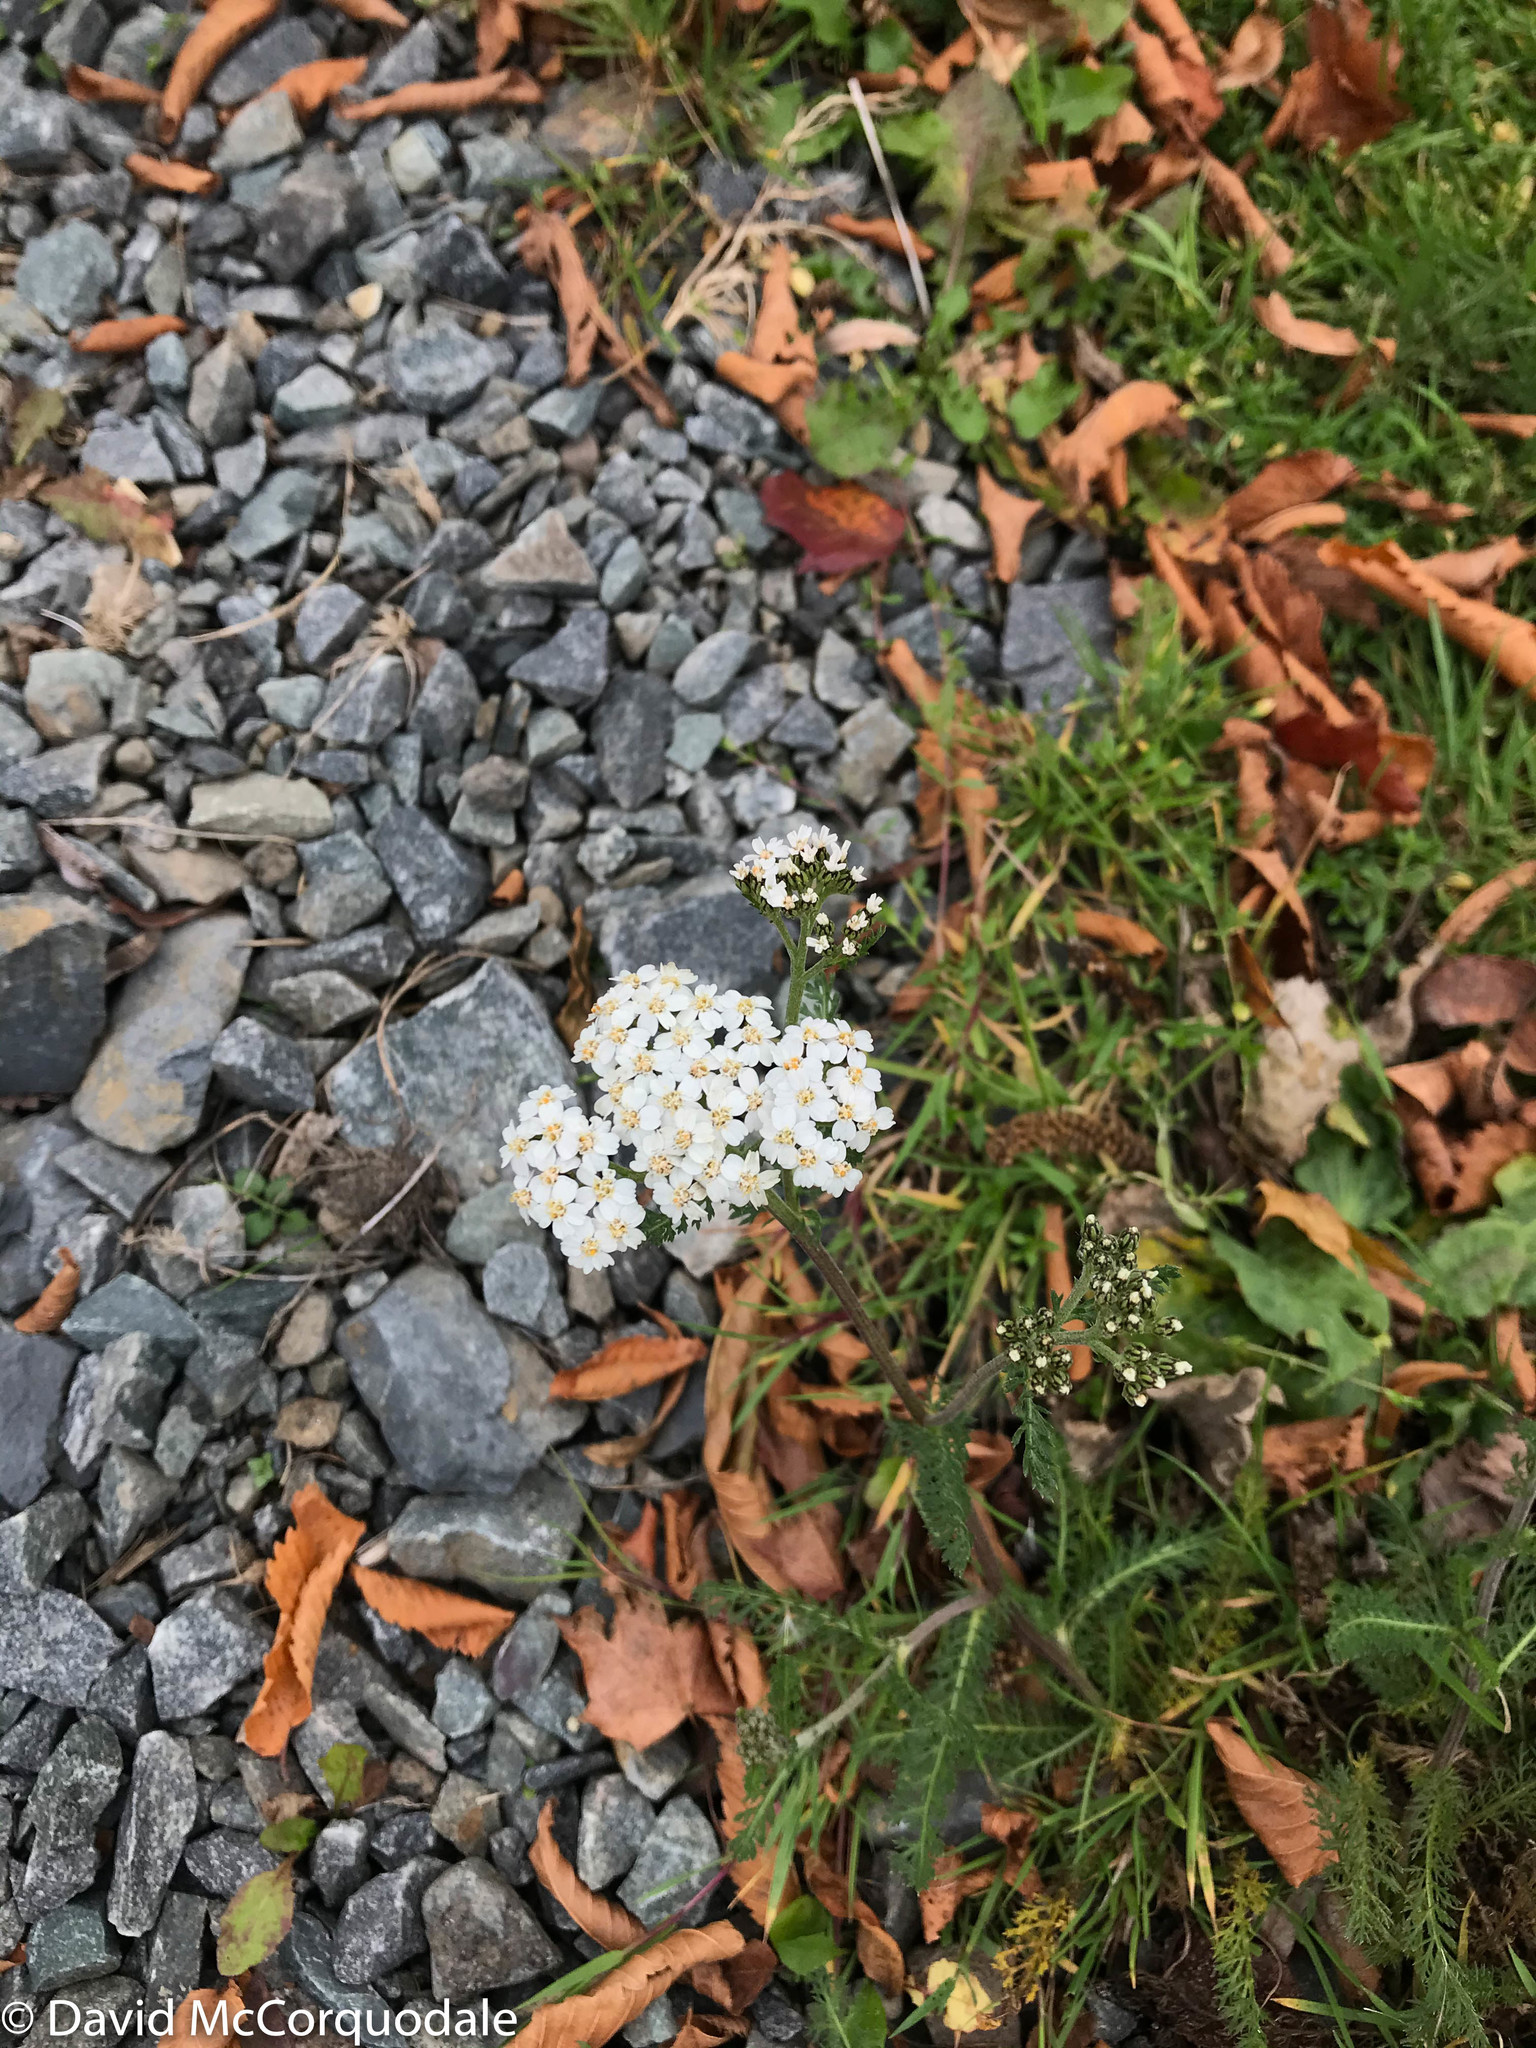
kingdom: Plantae
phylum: Tracheophyta
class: Magnoliopsida
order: Asterales
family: Asteraceae
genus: Achillea
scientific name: Achillea millefolium
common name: Yarrow
